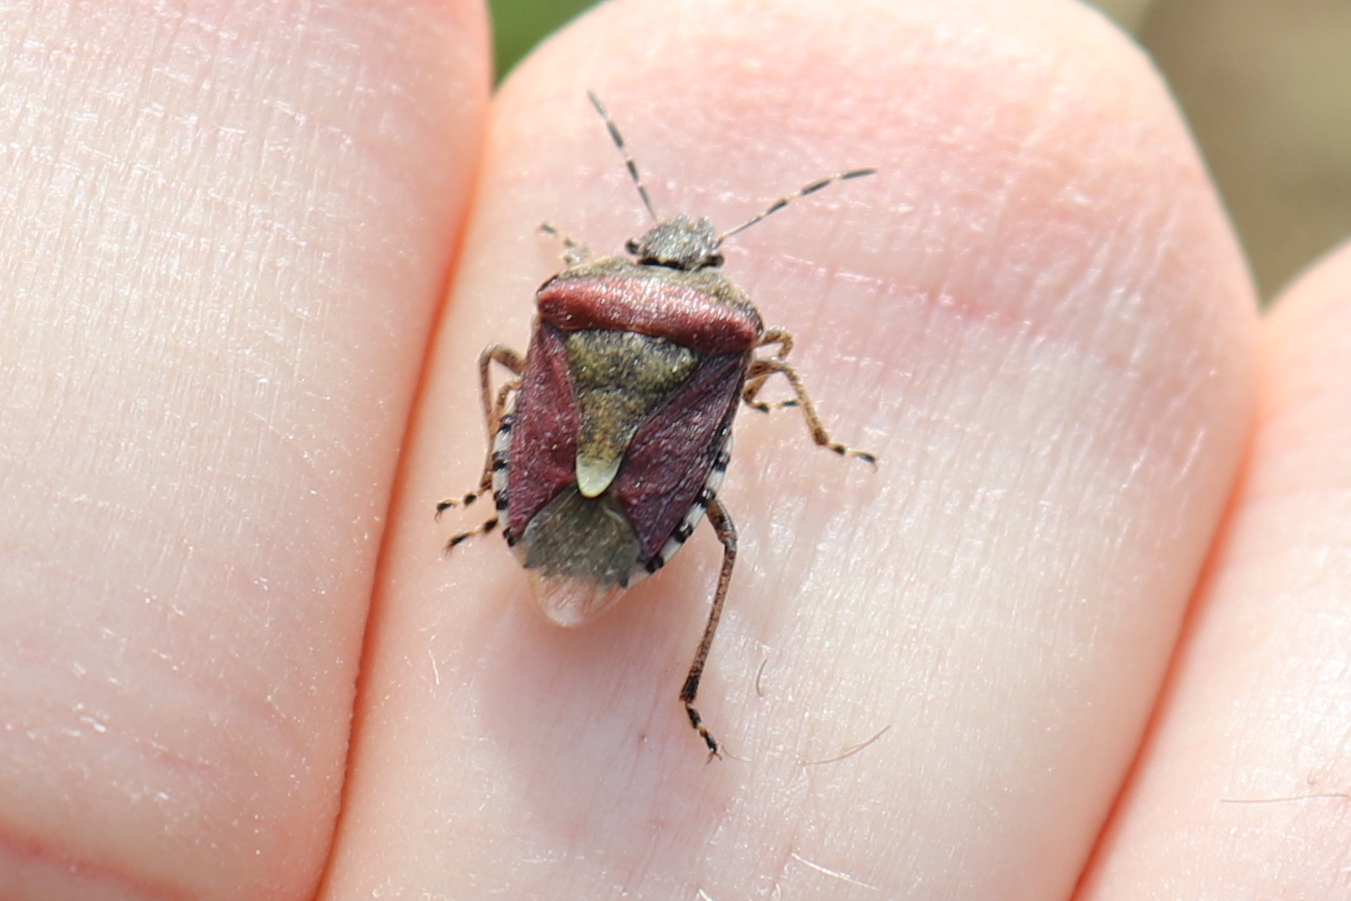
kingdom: Animalia
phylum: Arthropoda
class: Insecta
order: Hemiptera
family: Pentatomidae
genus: Dolycoris
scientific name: Dolycoris baccarum
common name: Sloe bug
